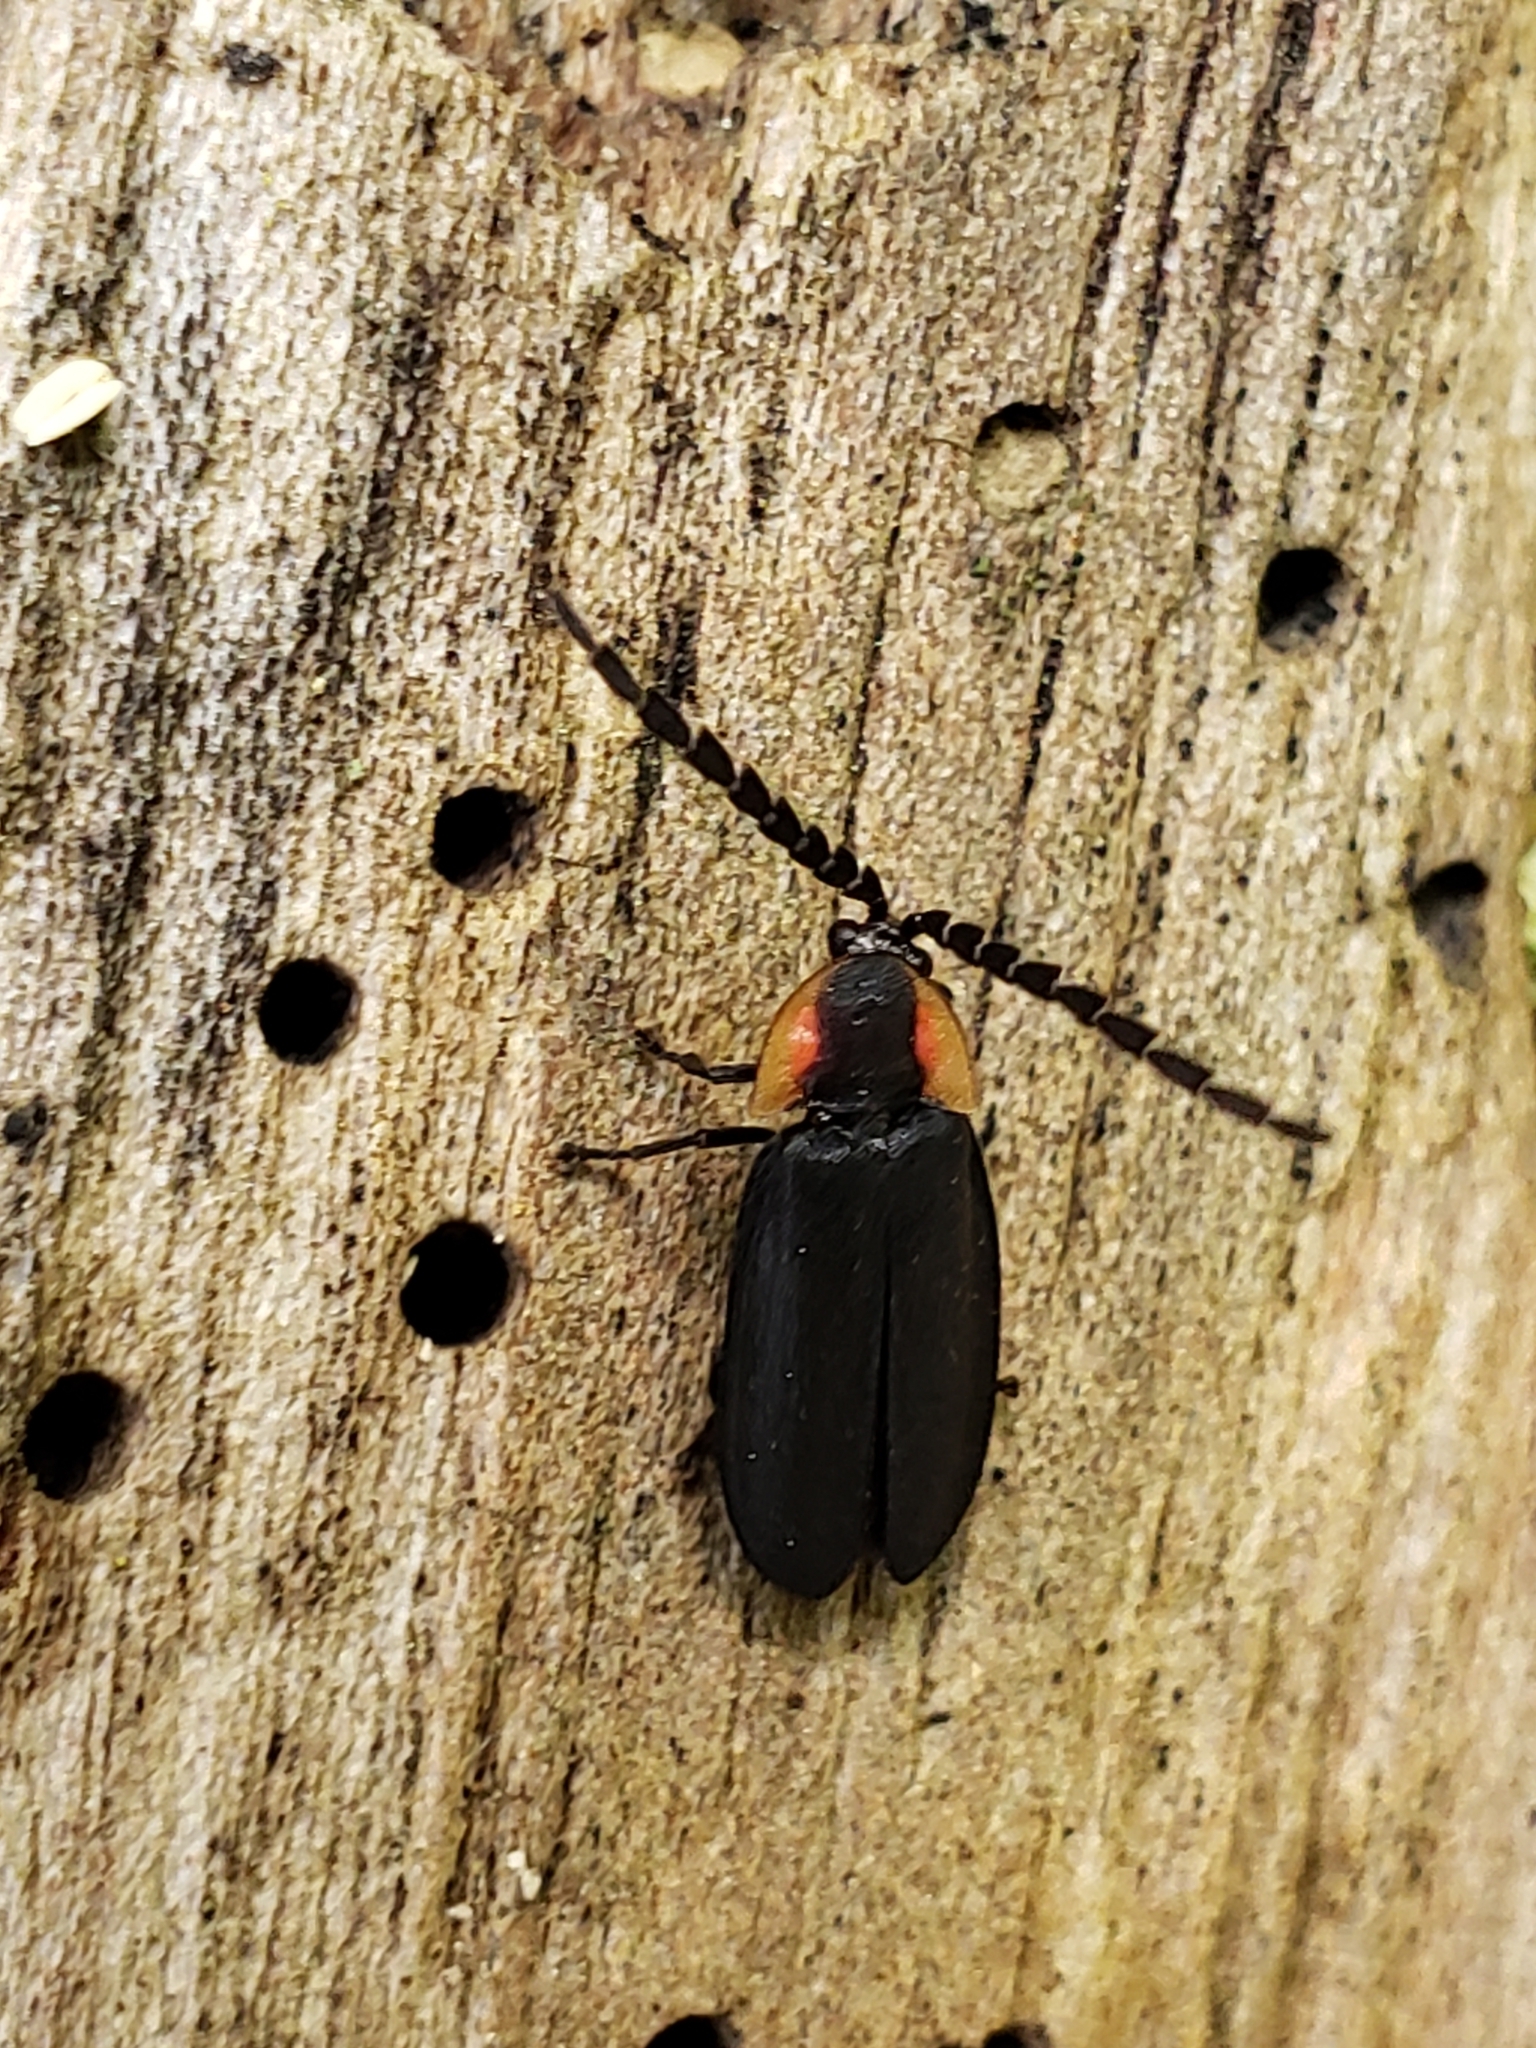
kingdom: Animalia
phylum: Arthropoda
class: Insecta
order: Coleoptera
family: Lampyridae
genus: Lucidota
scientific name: Lucidota atra
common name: Black firefly
